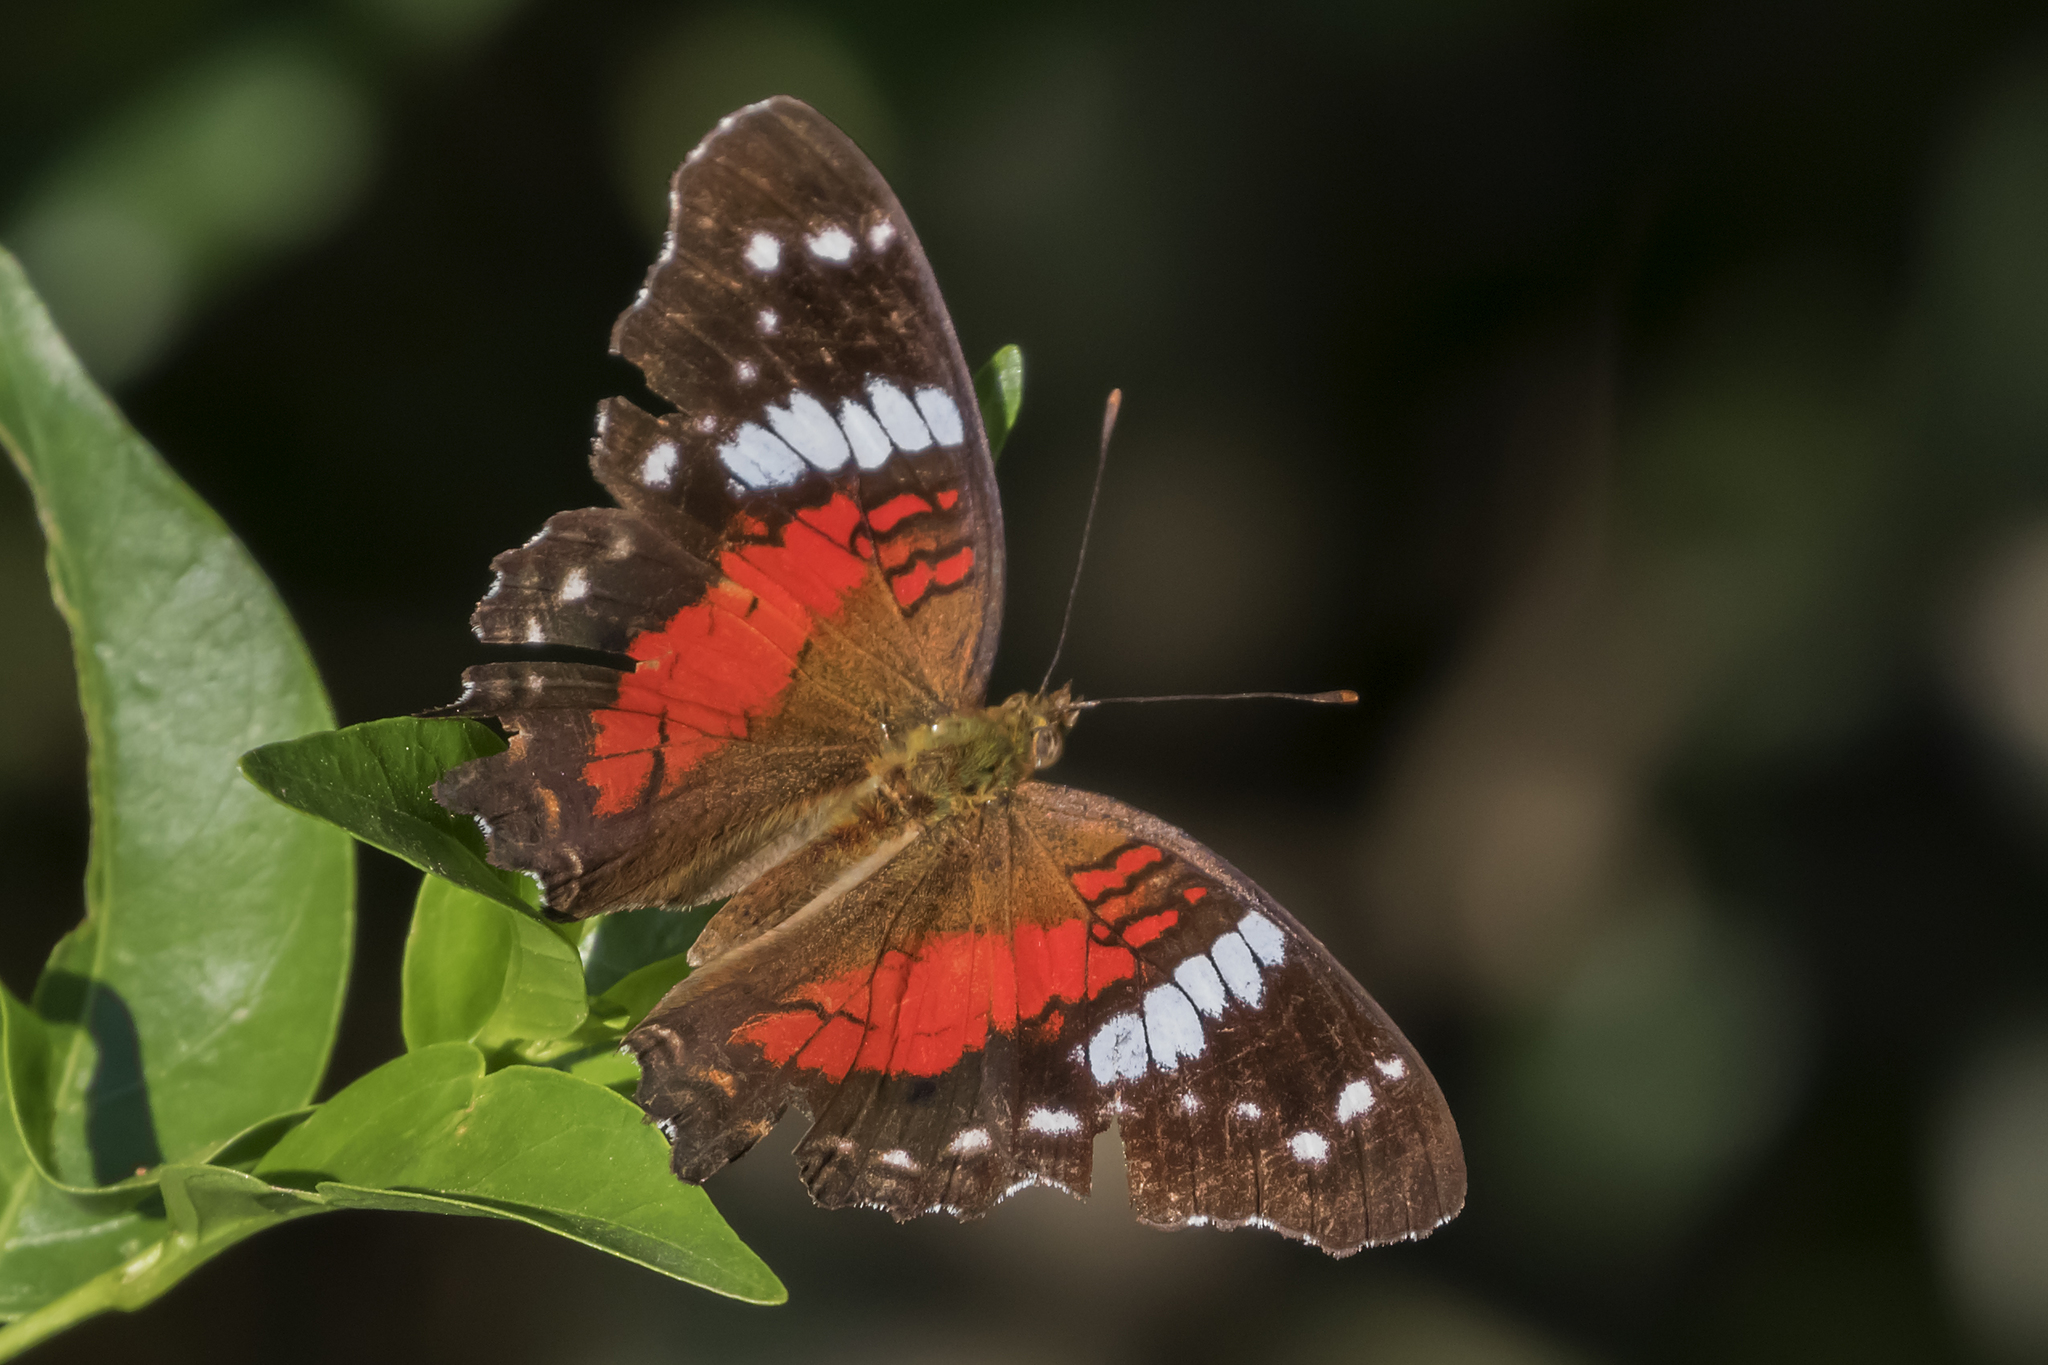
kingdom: Animalia
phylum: Arthropoda
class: Insecta
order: Lepidoptera
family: Nymphalidae
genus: Anartia
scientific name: Anartia amathea
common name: Red peacock
